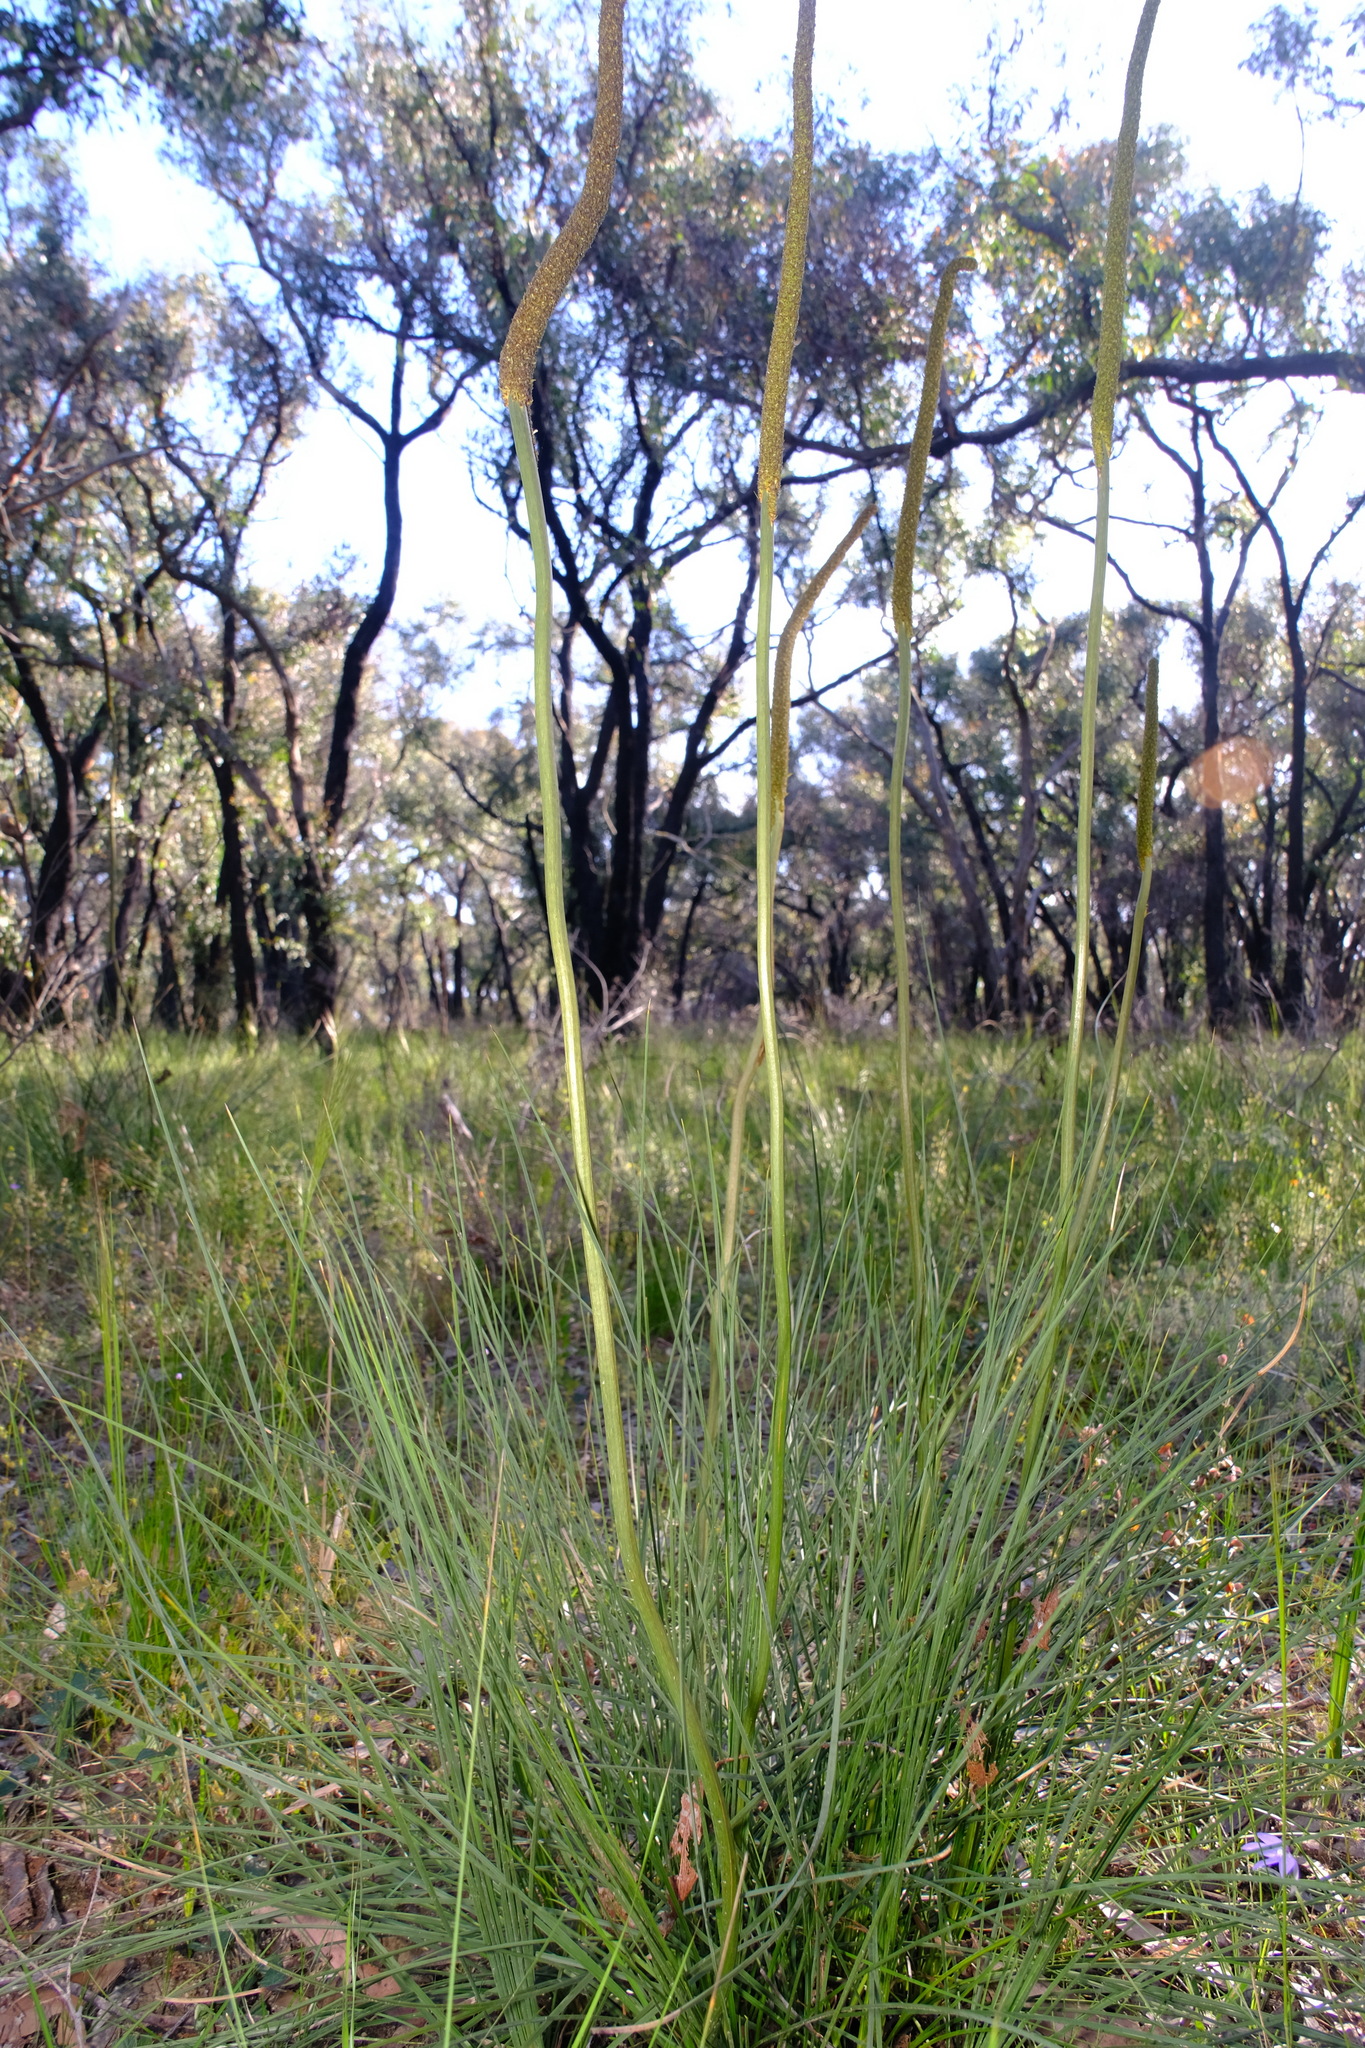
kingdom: Plantae
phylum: Tracheophyta
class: Liliopsida
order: Asparagales
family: Asphodelaceae
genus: Xanthorrhoea
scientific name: Xanthorrhoea minor
